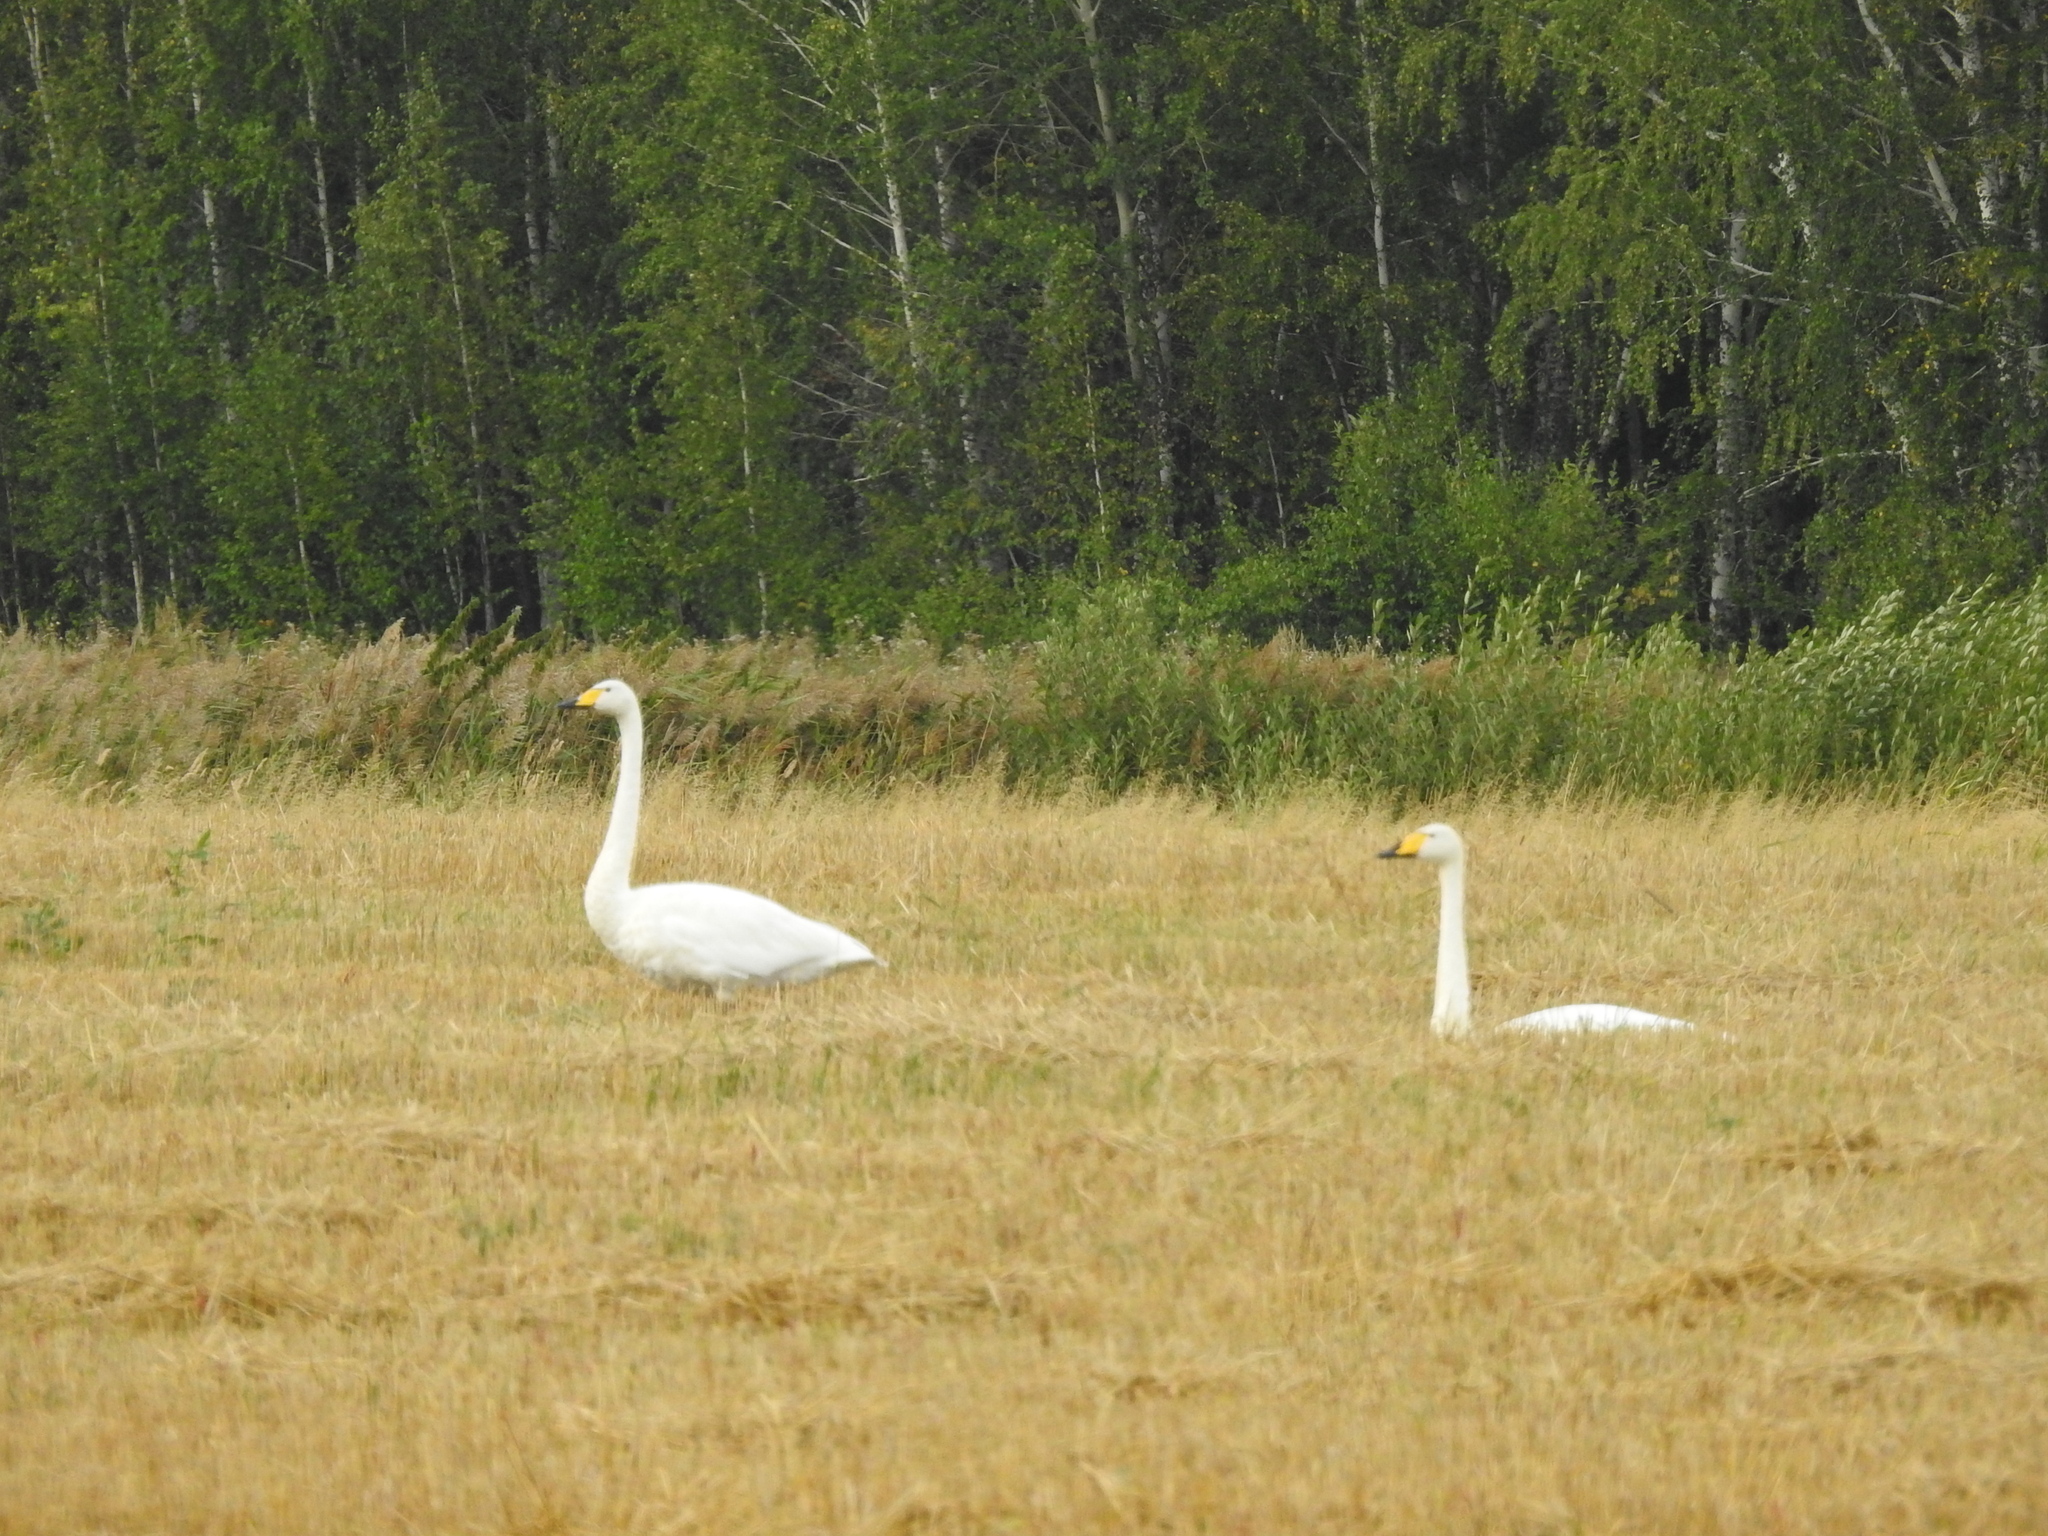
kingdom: Animalia
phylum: Chordata
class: Aves
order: Anseriformes
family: Anatidae
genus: Cygnus
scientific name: Cygnus cygnus
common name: Whooper swan
